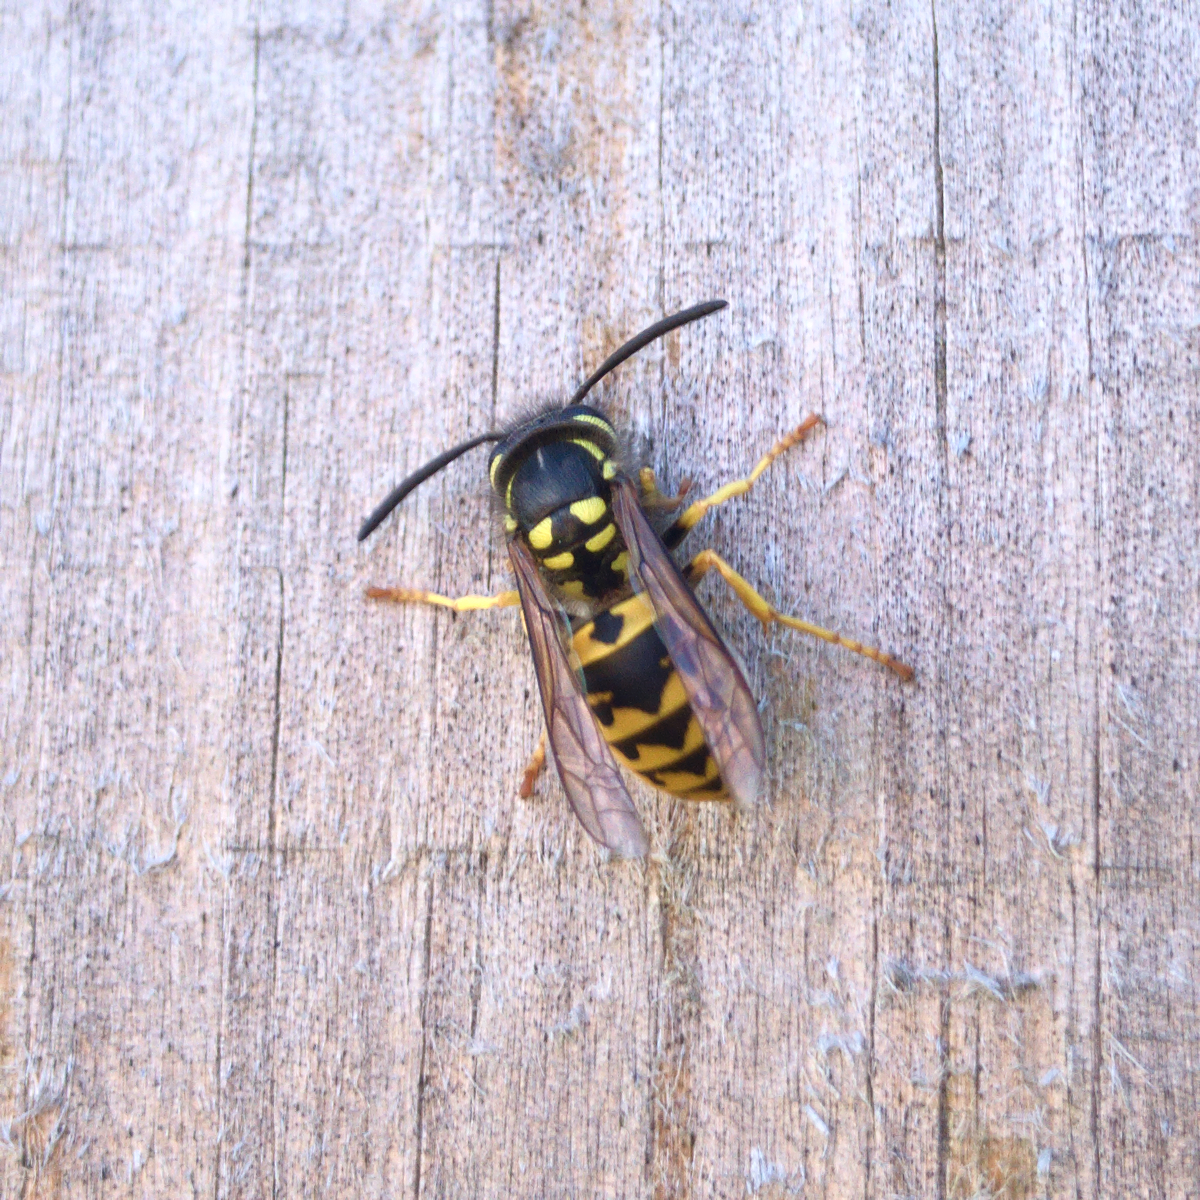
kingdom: Animalia
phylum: Arthropoda
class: Insecta
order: Hymenoptera
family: Vespidae
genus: Vespula
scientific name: Vespula germanica
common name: German wasp
